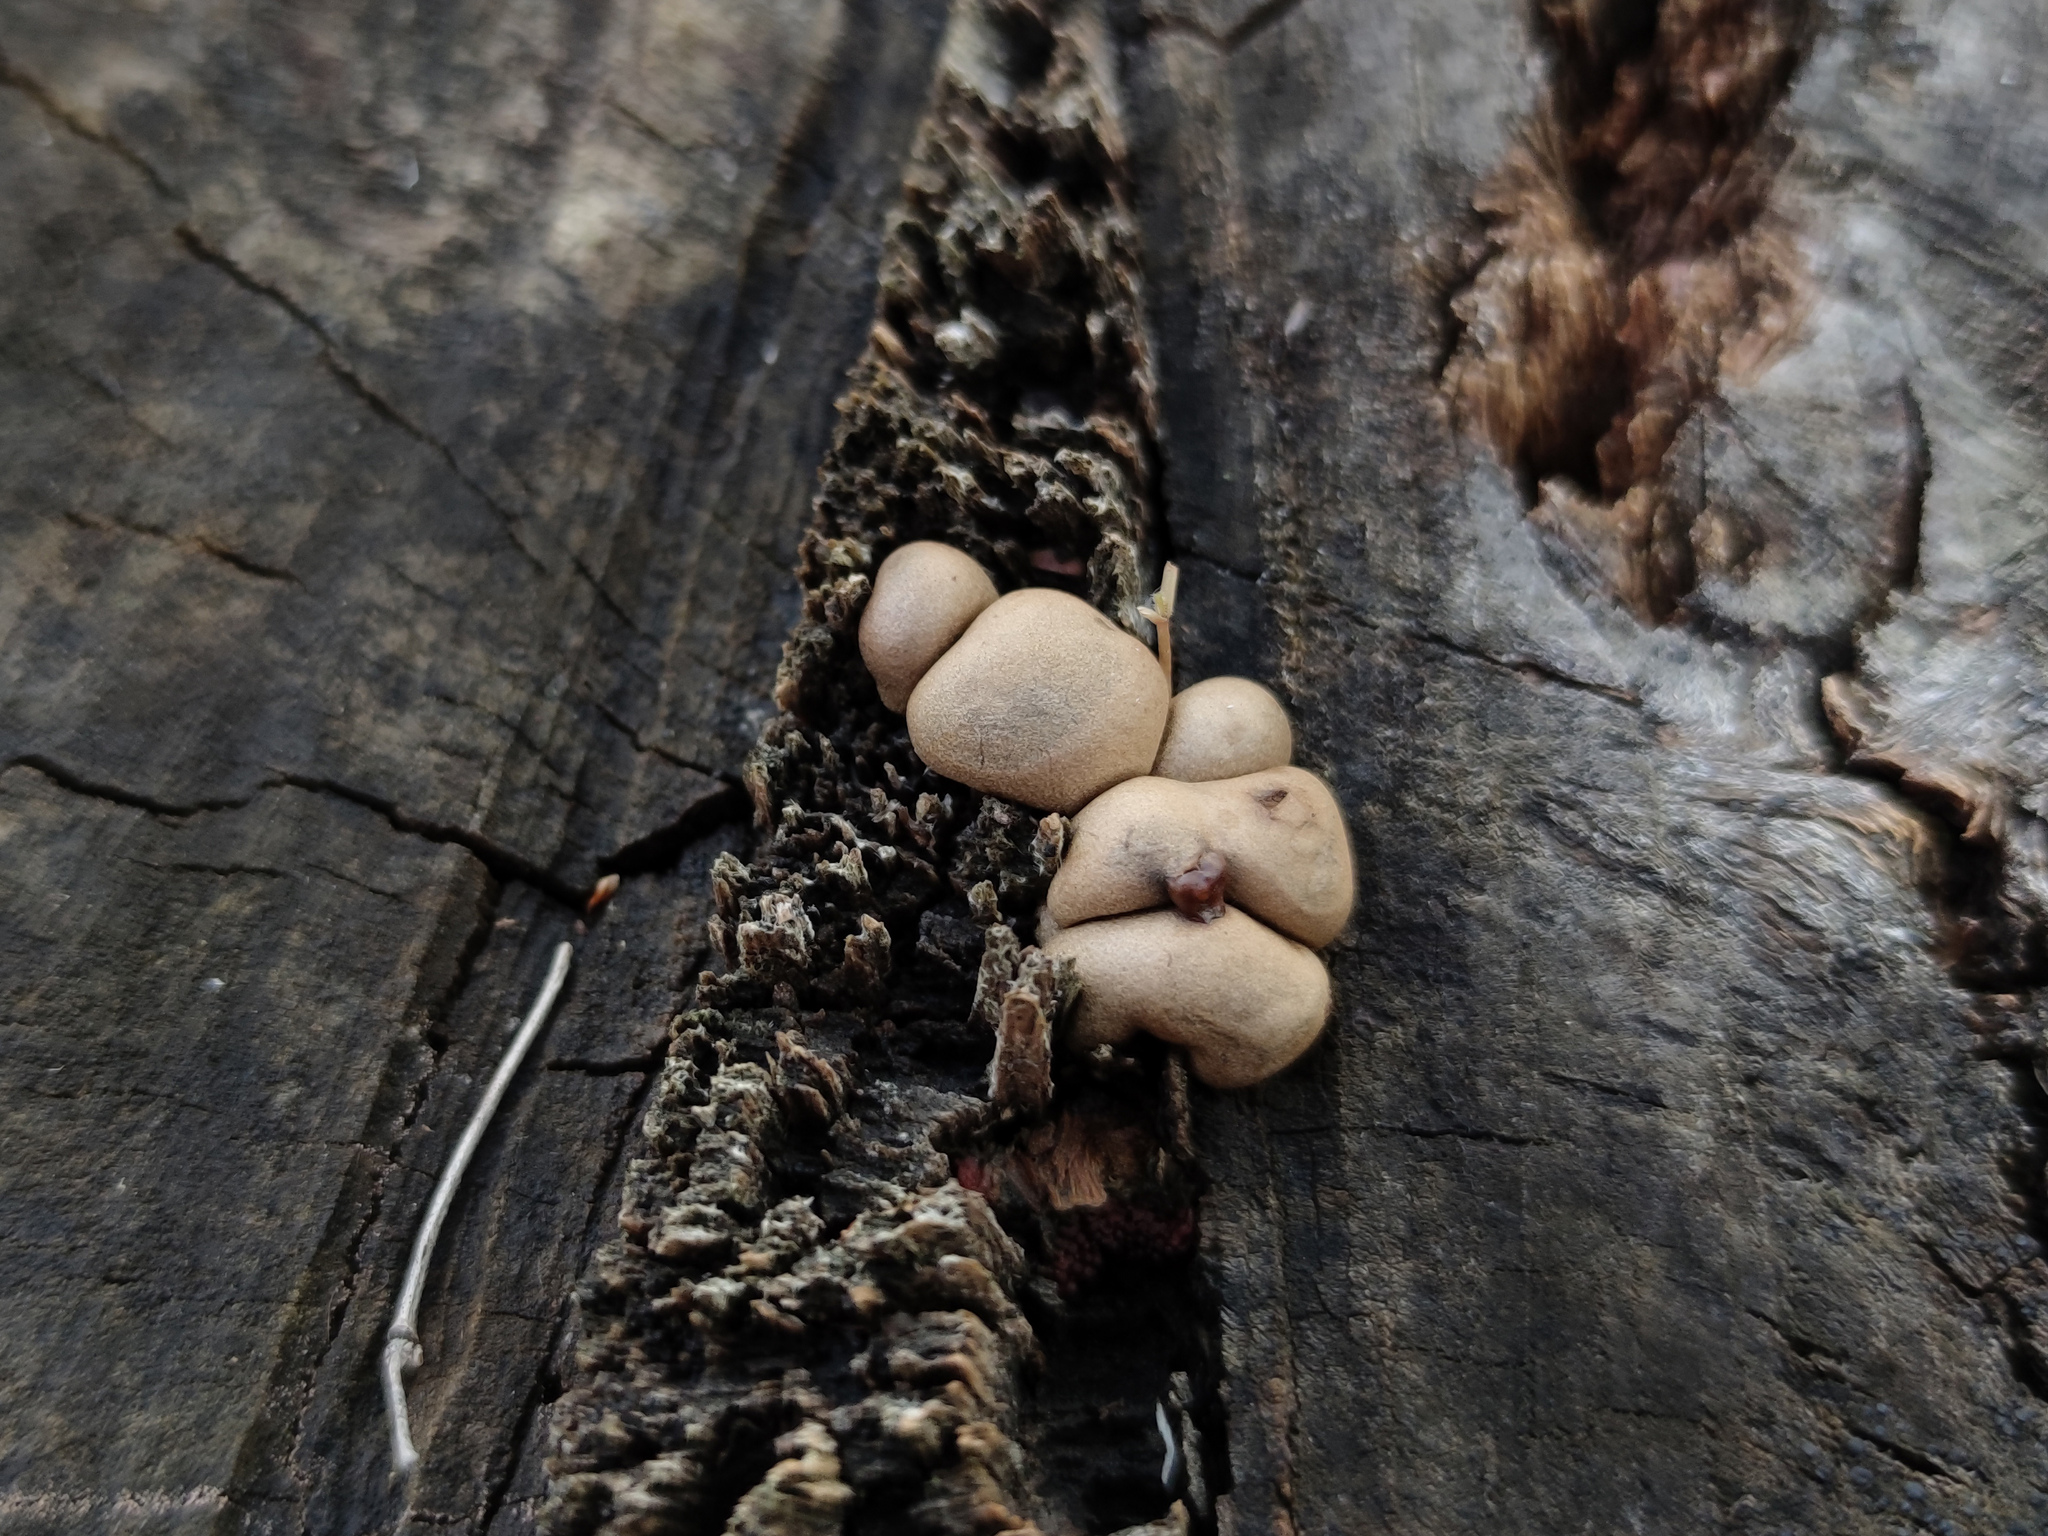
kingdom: Protozoa
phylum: Mycetozoa
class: Myxomycetes
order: Cribrariales
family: Tubiferaceae
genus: Lycogala
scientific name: Lycogala epidendrum
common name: Wolf's milk
